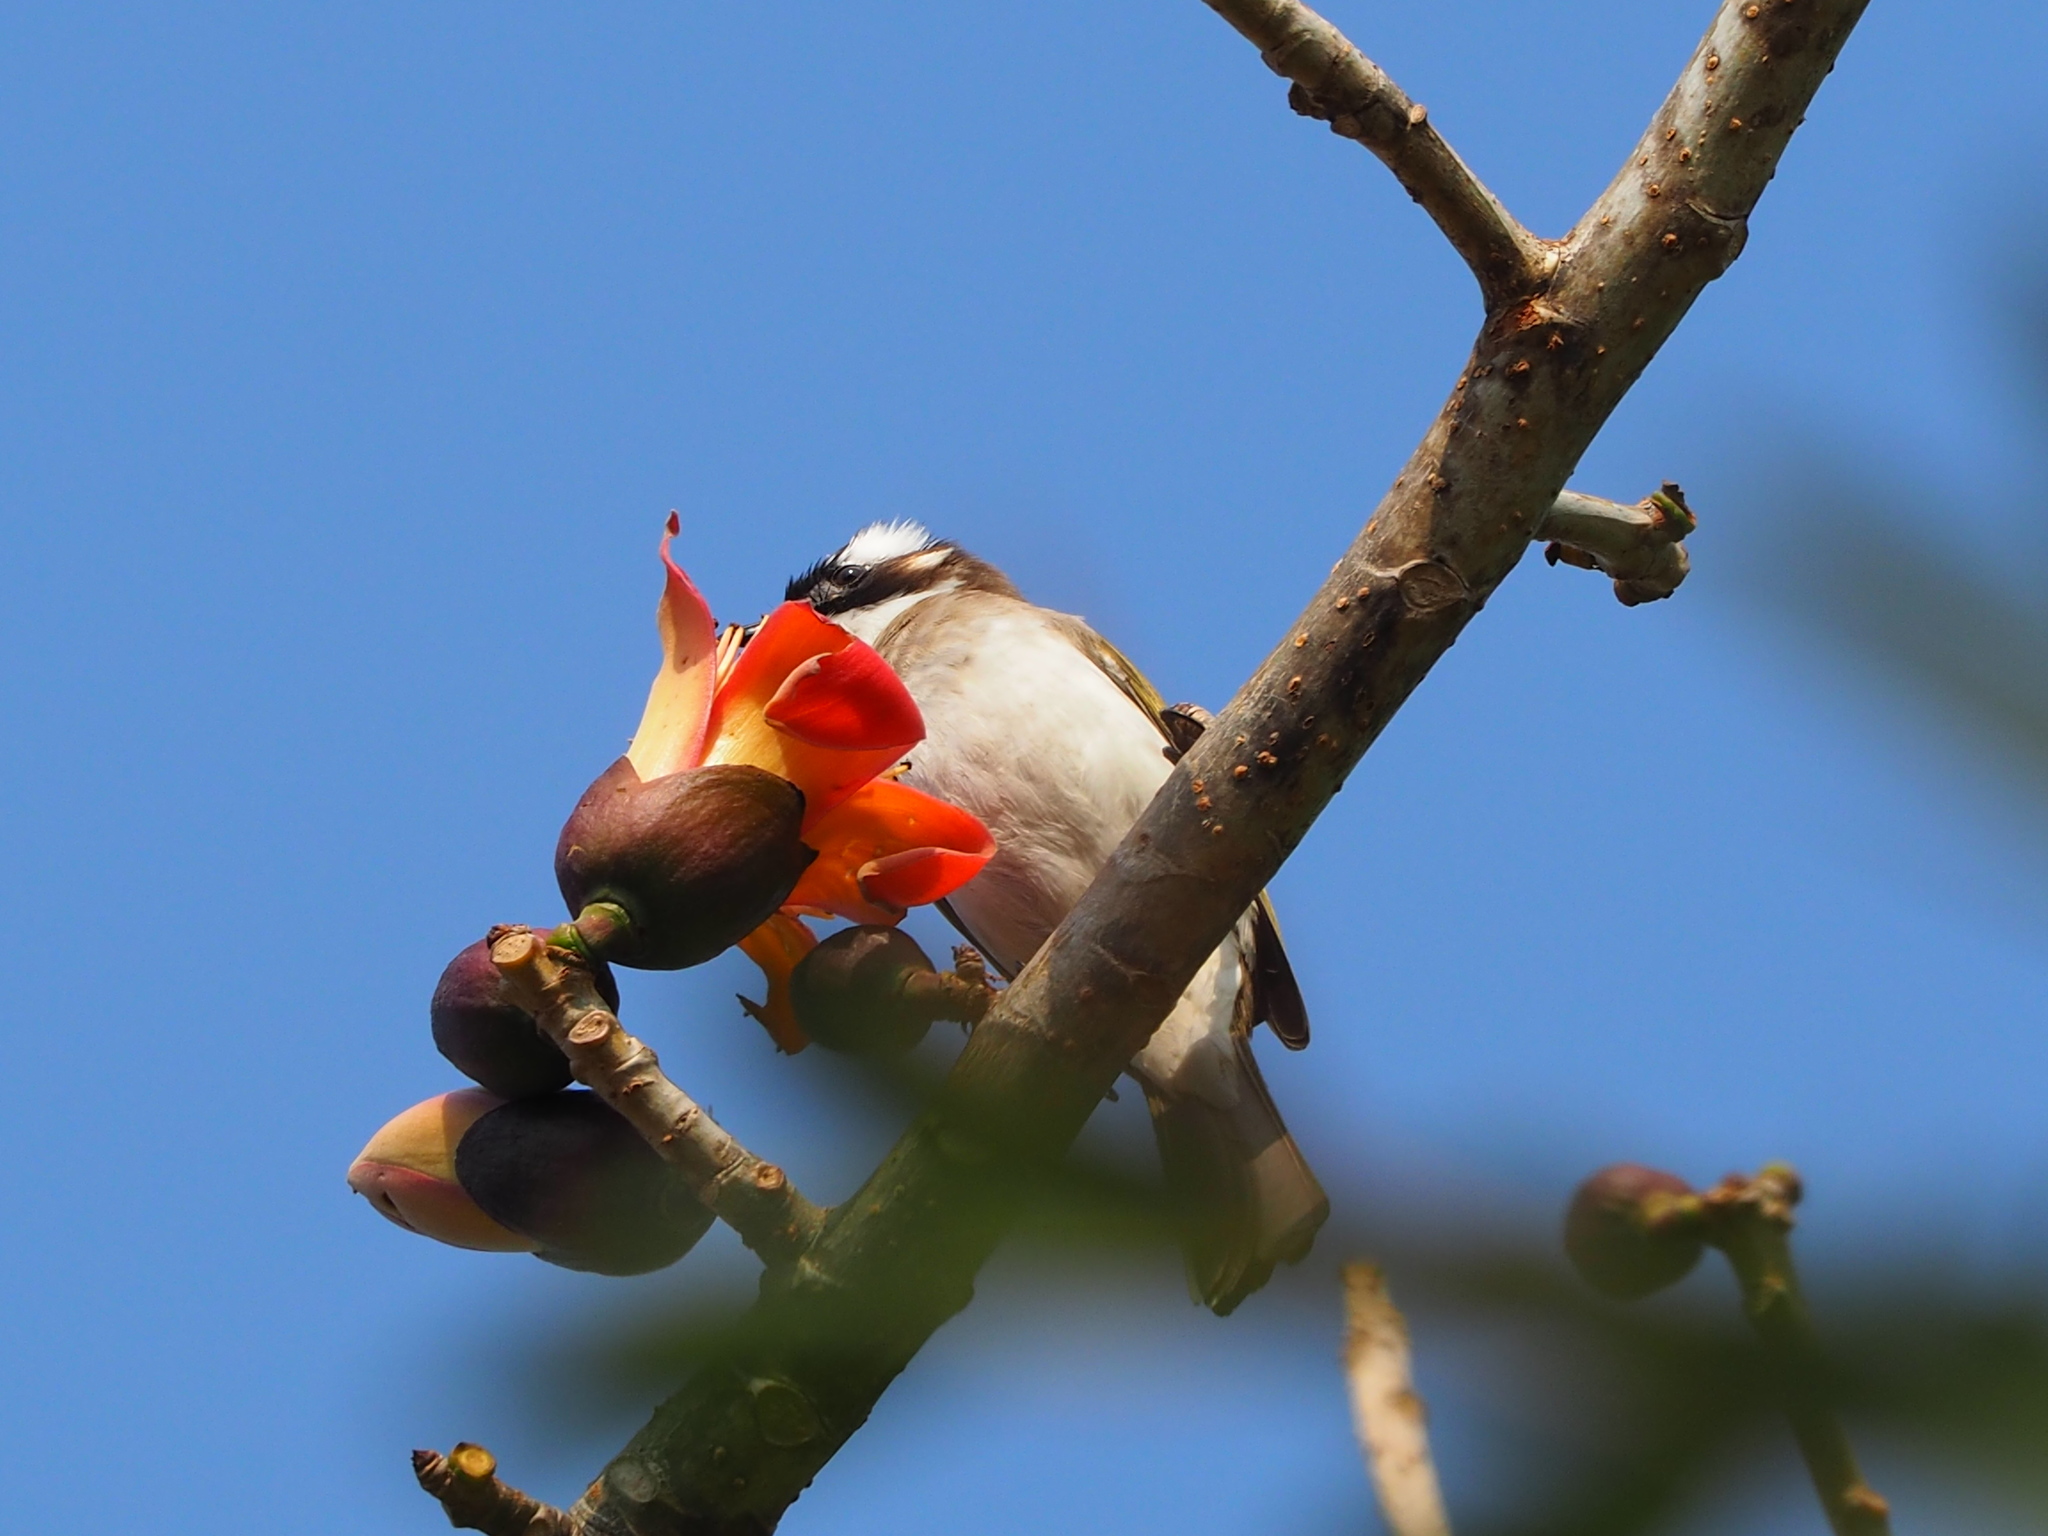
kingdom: Animalia
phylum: Chordata
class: Aves
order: Passeriformes
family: Pycnonotidae
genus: Pycnonotus
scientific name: Pycnonotus sinensis
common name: Light-vented bulbul
